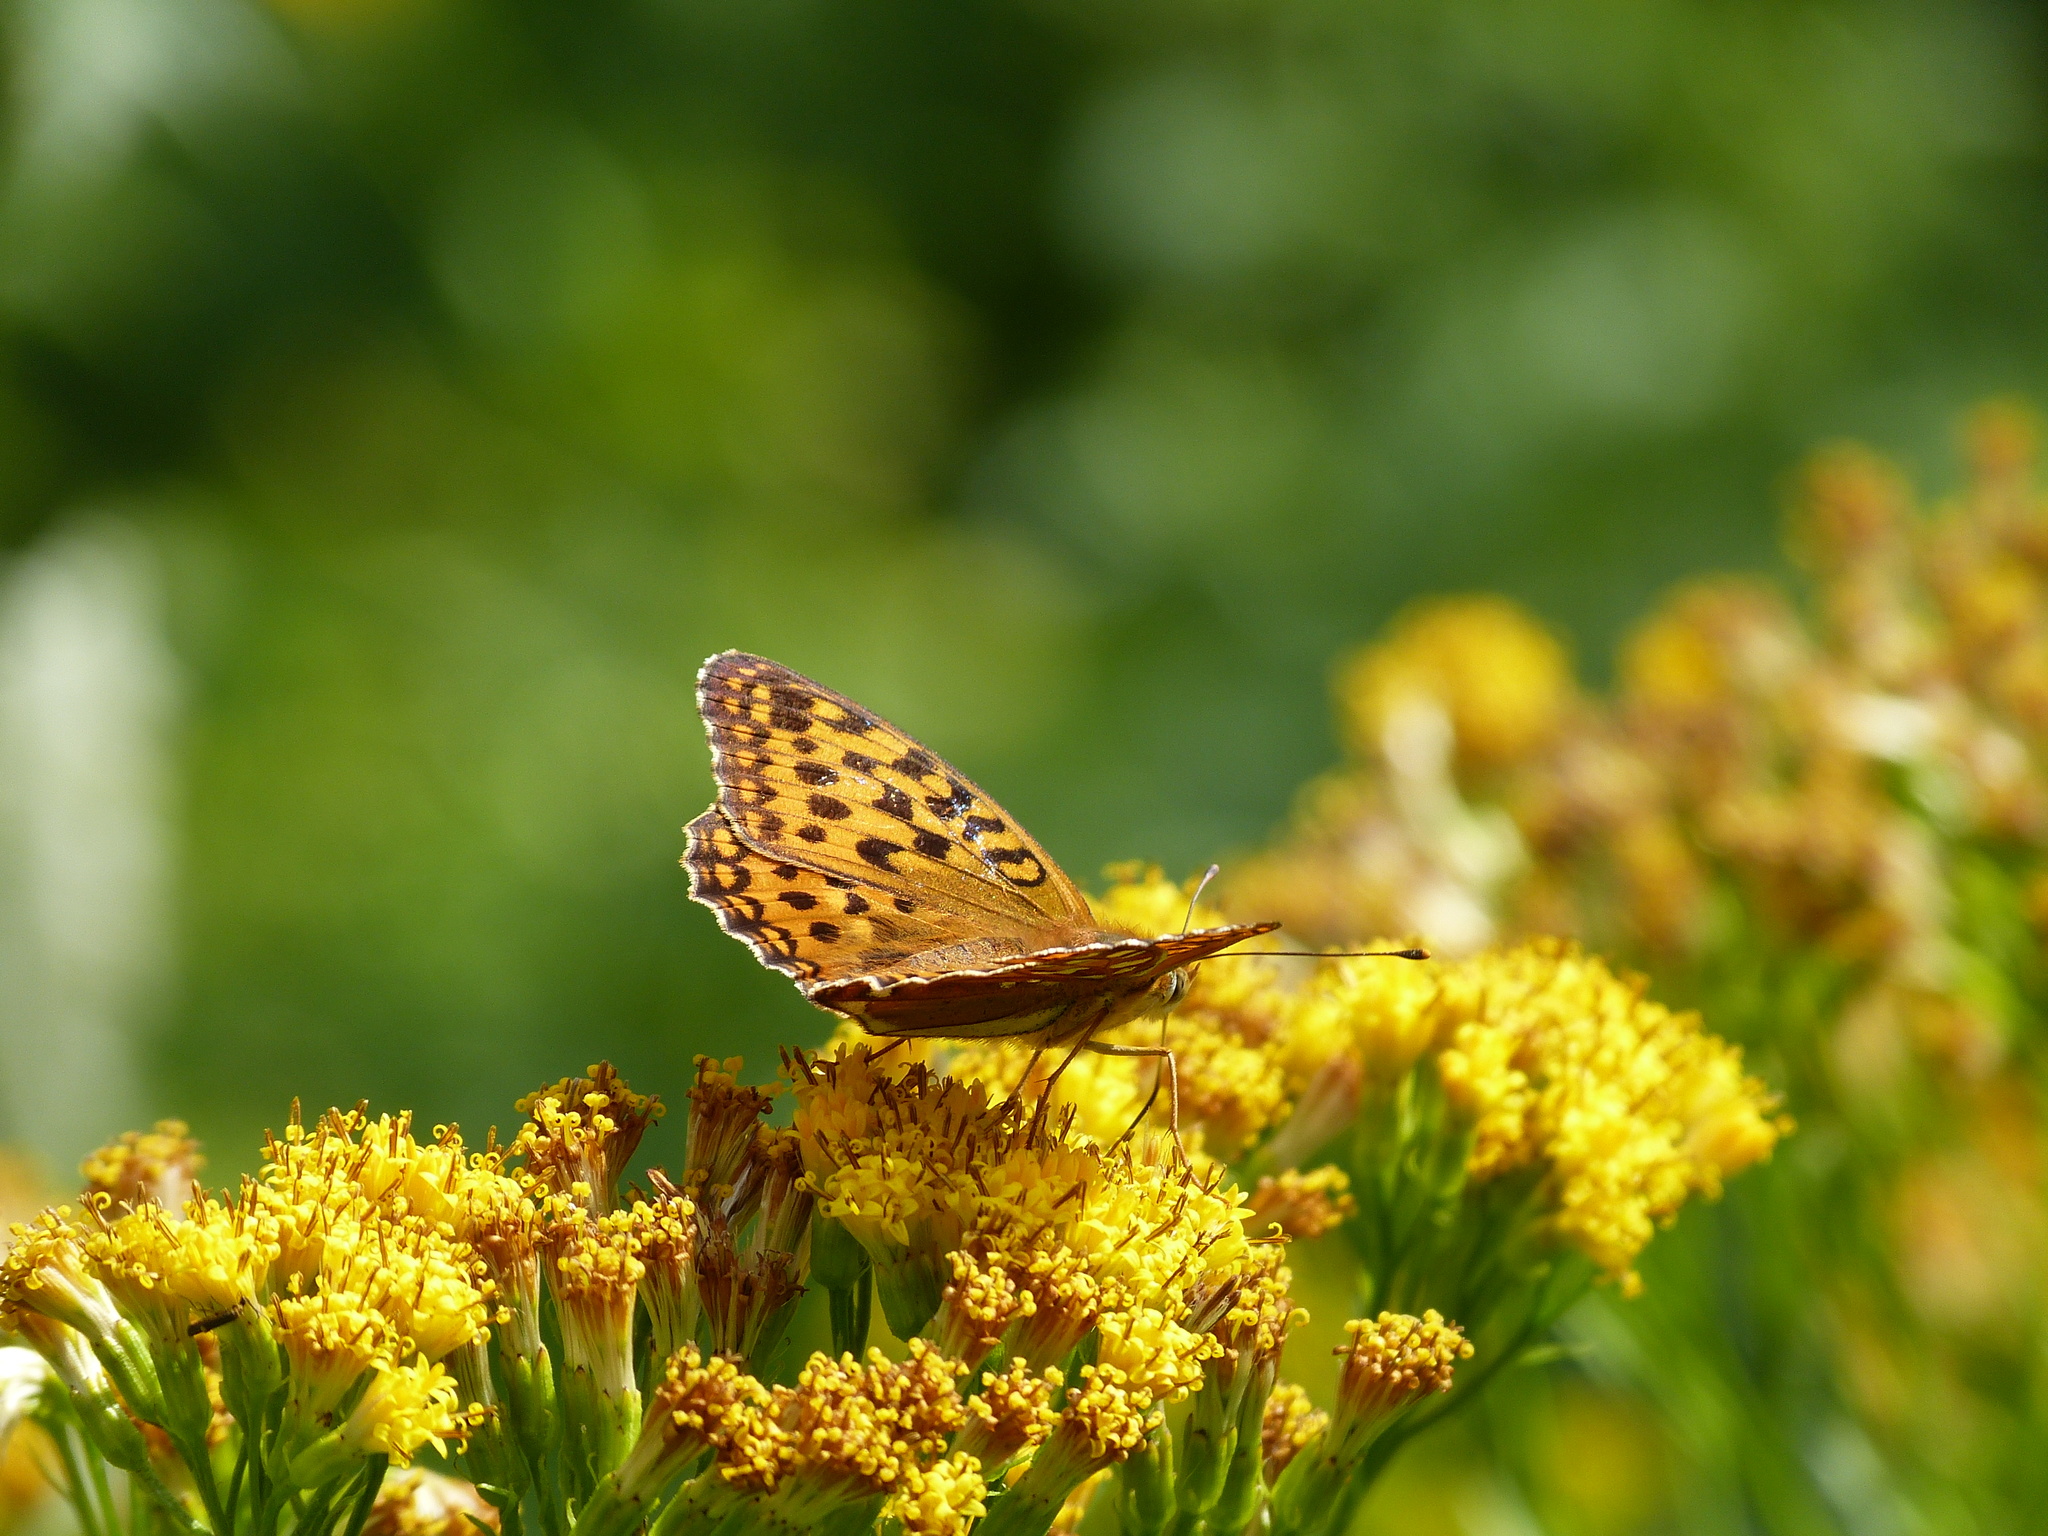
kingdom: Animalia
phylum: Arthropoda
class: Insecta
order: Lepidoptera
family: Nymphalidae
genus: Fabriciana
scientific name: Fabriciana adippe
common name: High brown fritillary
